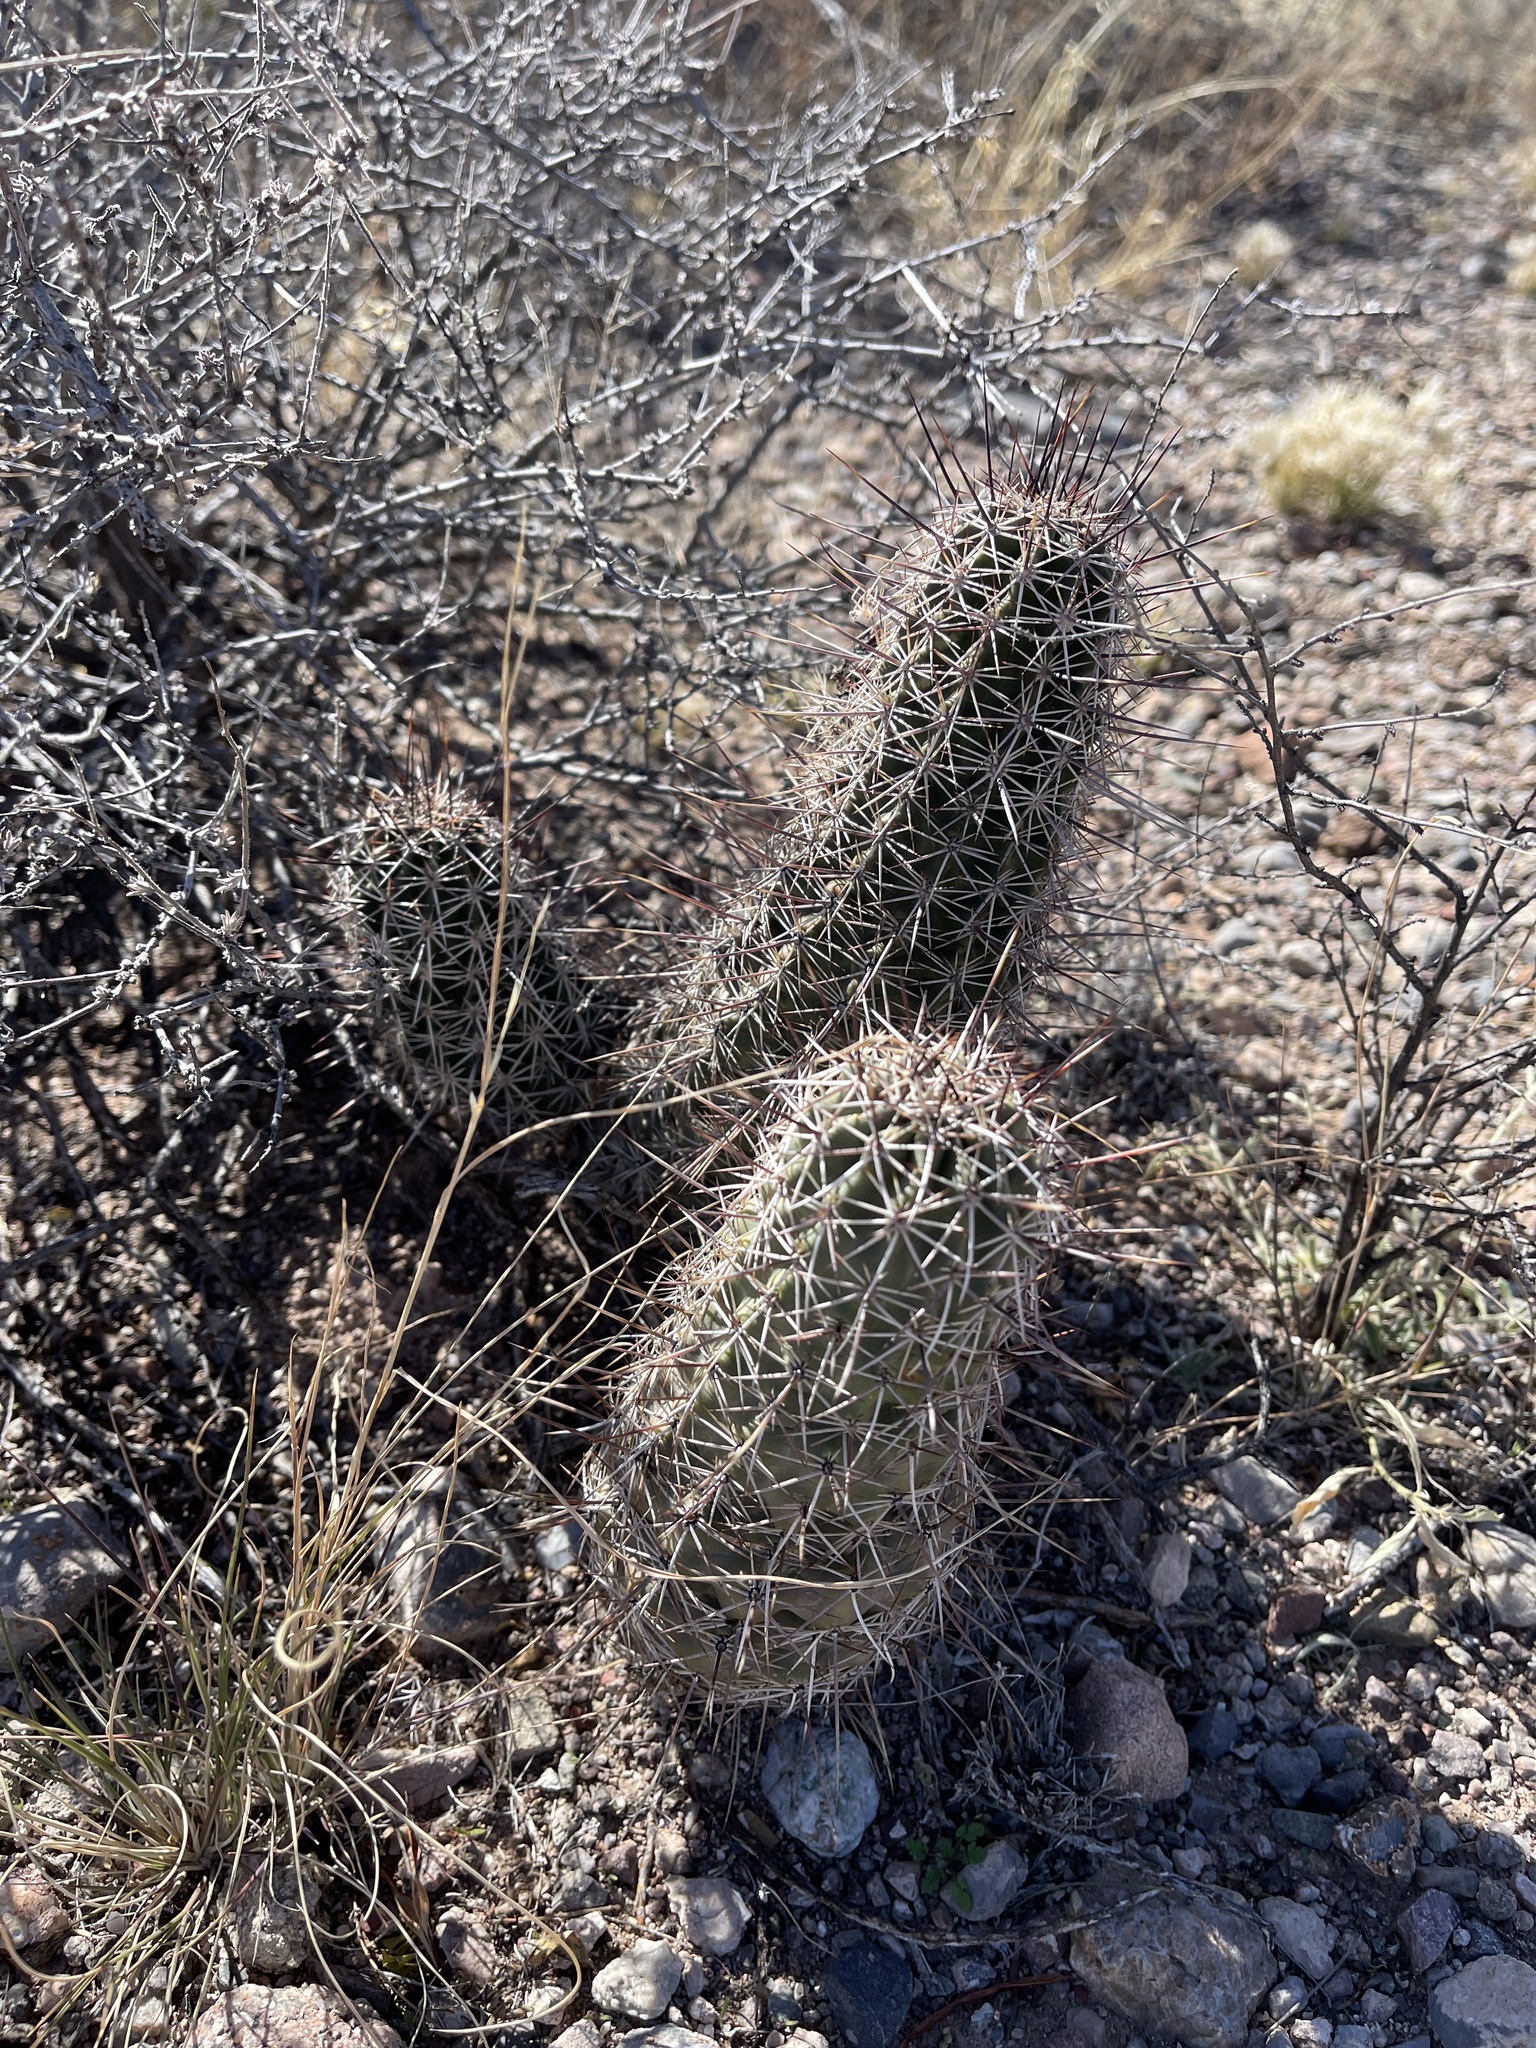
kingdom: Plantae
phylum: Tracheophyta
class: Magnoliopsida
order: Caryophyllales
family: Cactaceae
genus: Echinocereus
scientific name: Echinocereus fasciculatus
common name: Bundle hedgehog
